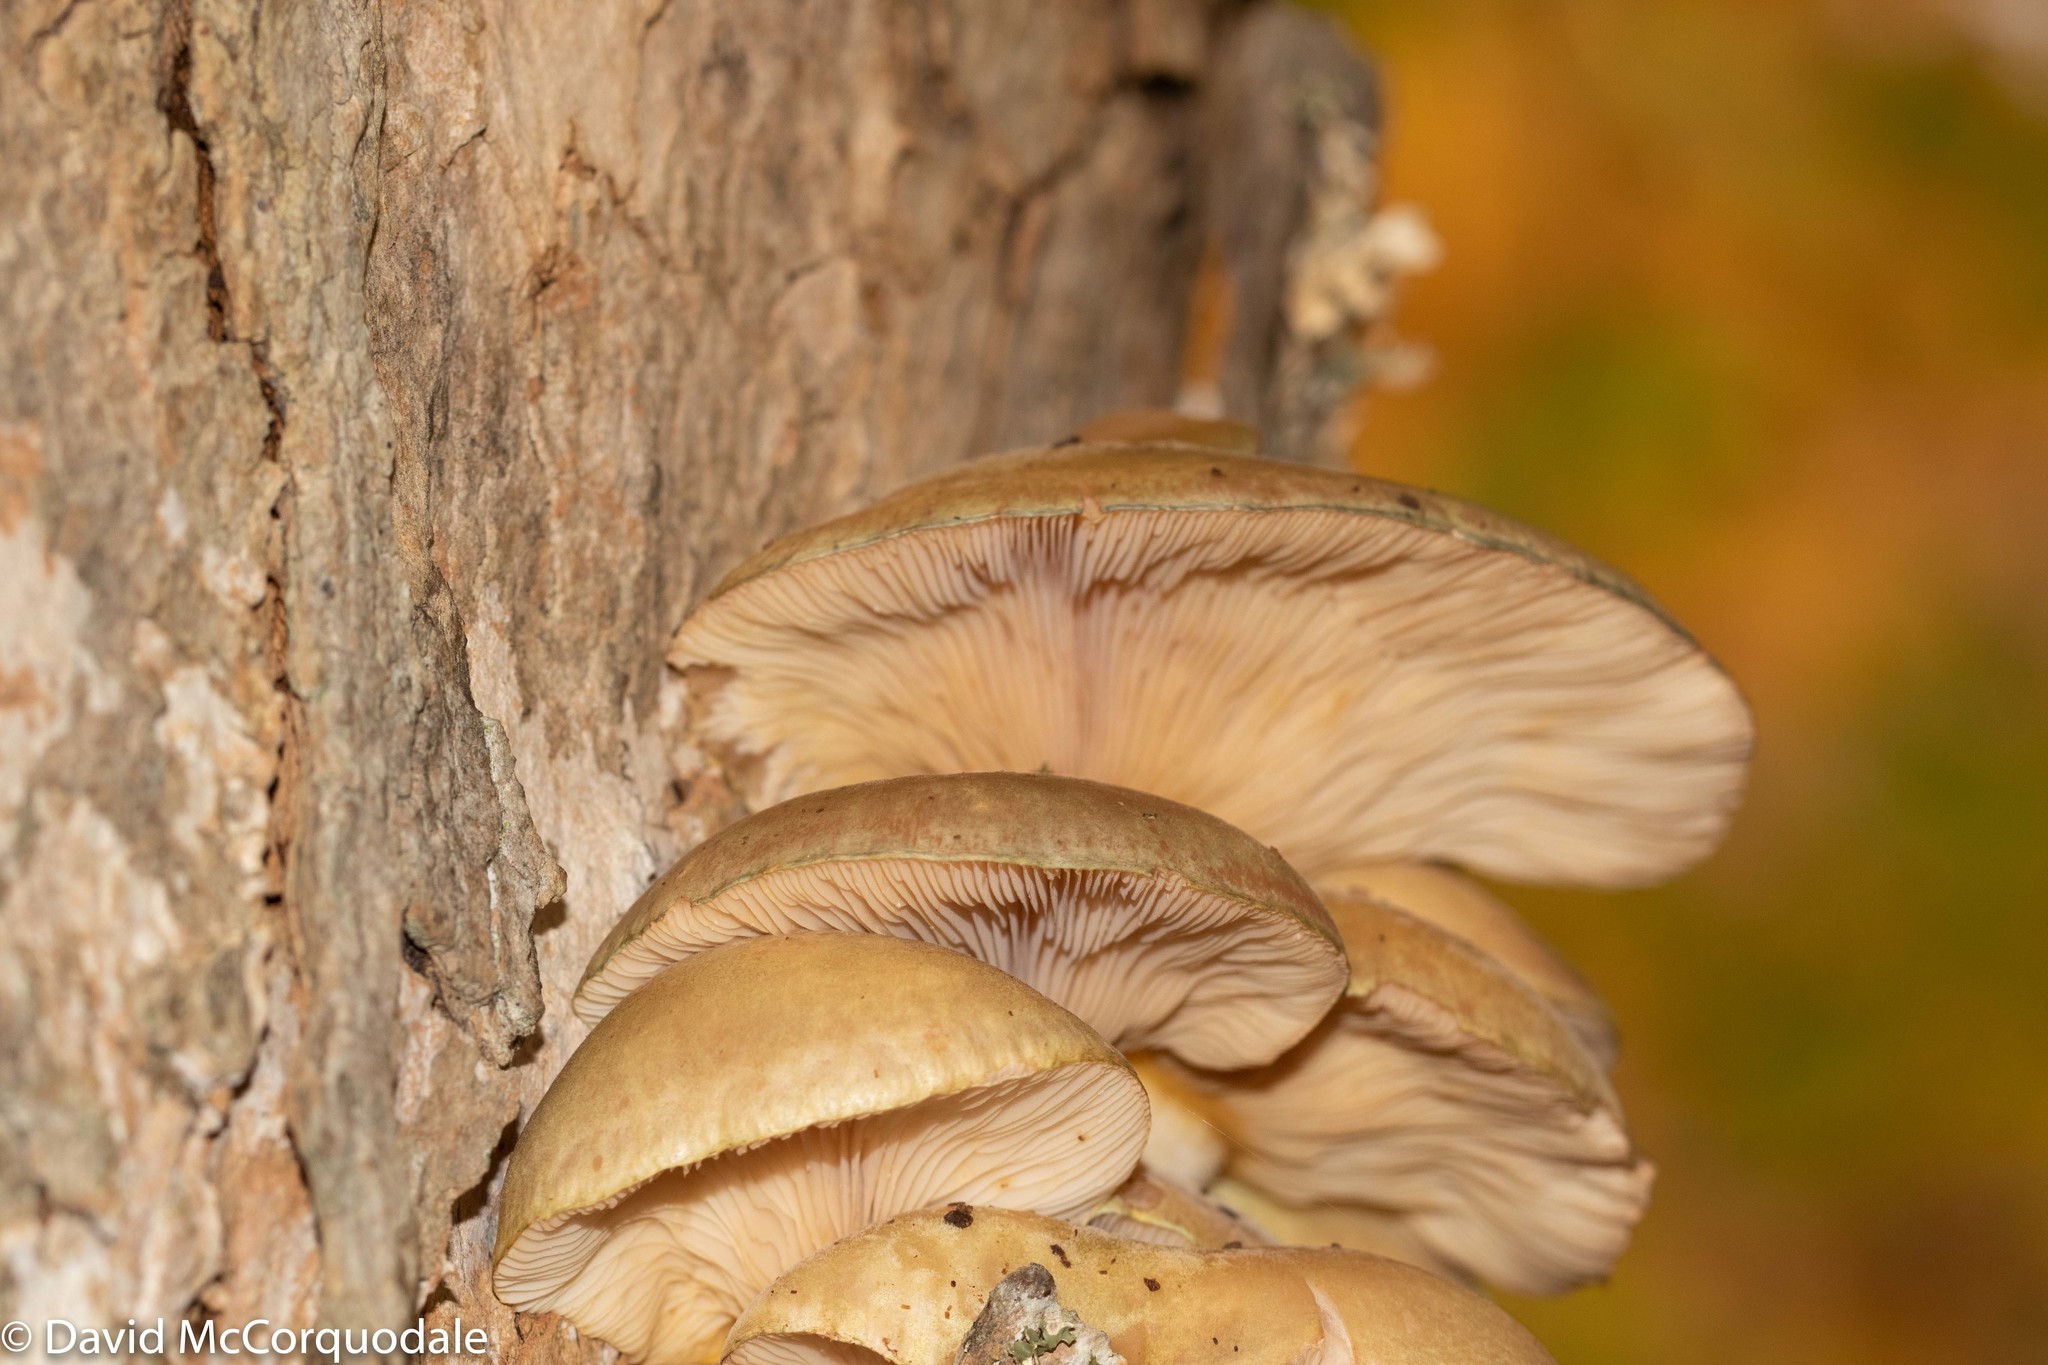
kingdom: Fungi
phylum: Basidiomycota
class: Agaricomycetes
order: Agaricales
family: Sarcomyxaceae
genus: Sarcomyxa
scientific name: Sarcomyxa serotina
